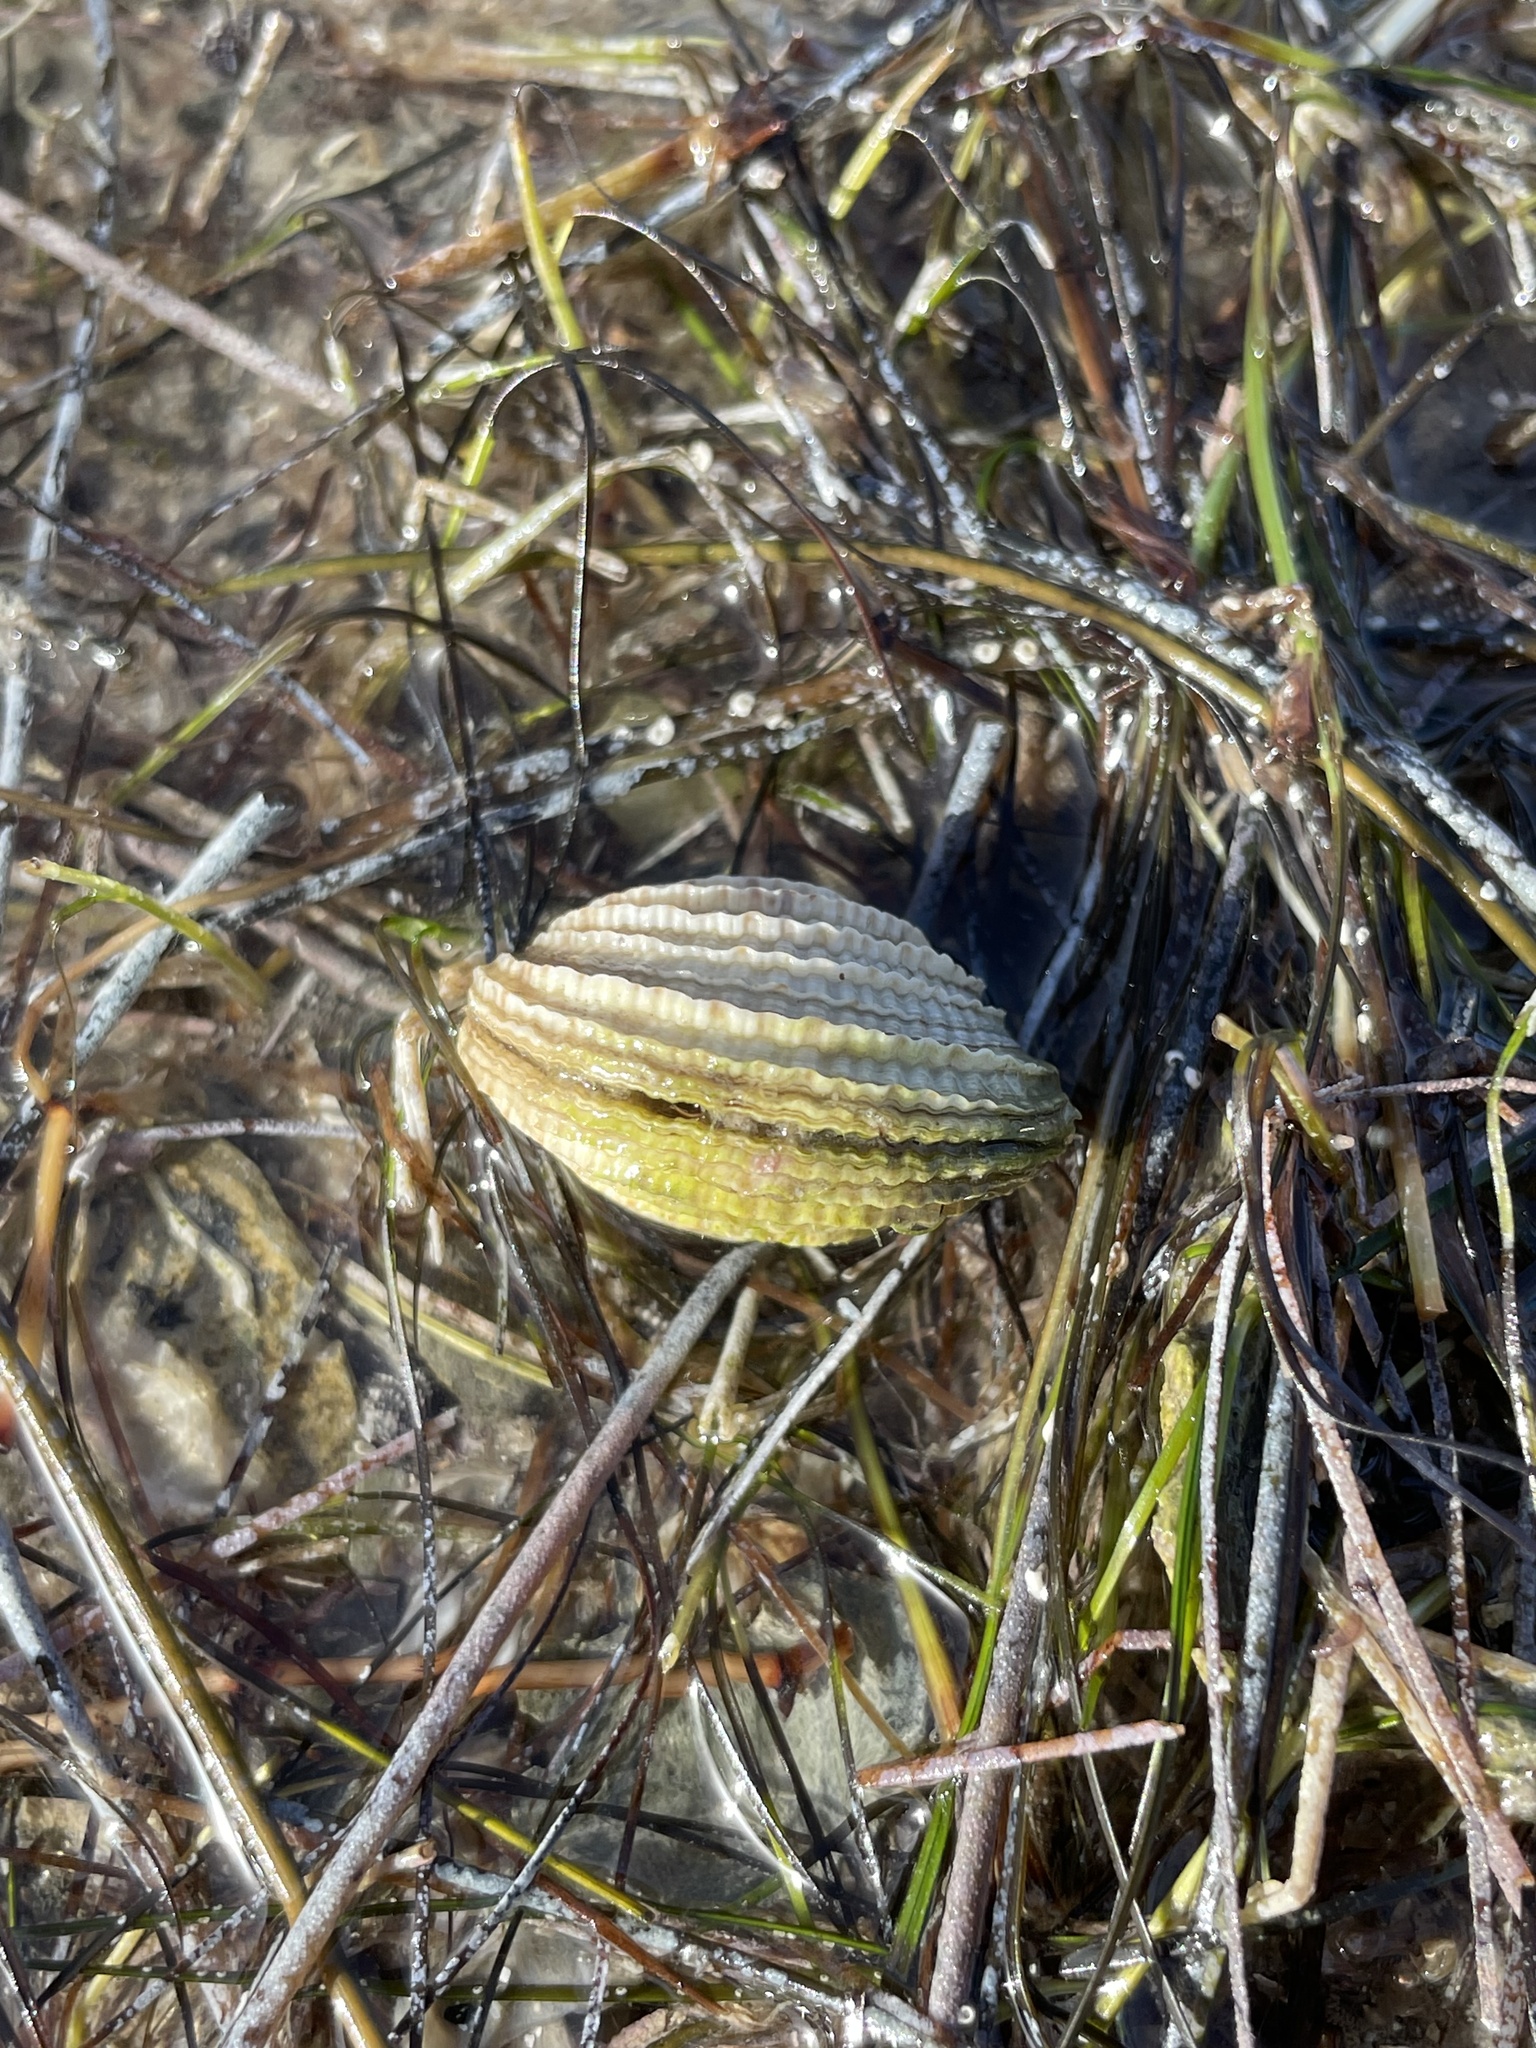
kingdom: Animalia
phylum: Mollusca
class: Bivalvia
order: Venerida
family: Veneridae
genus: Chione
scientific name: Chione elevata
